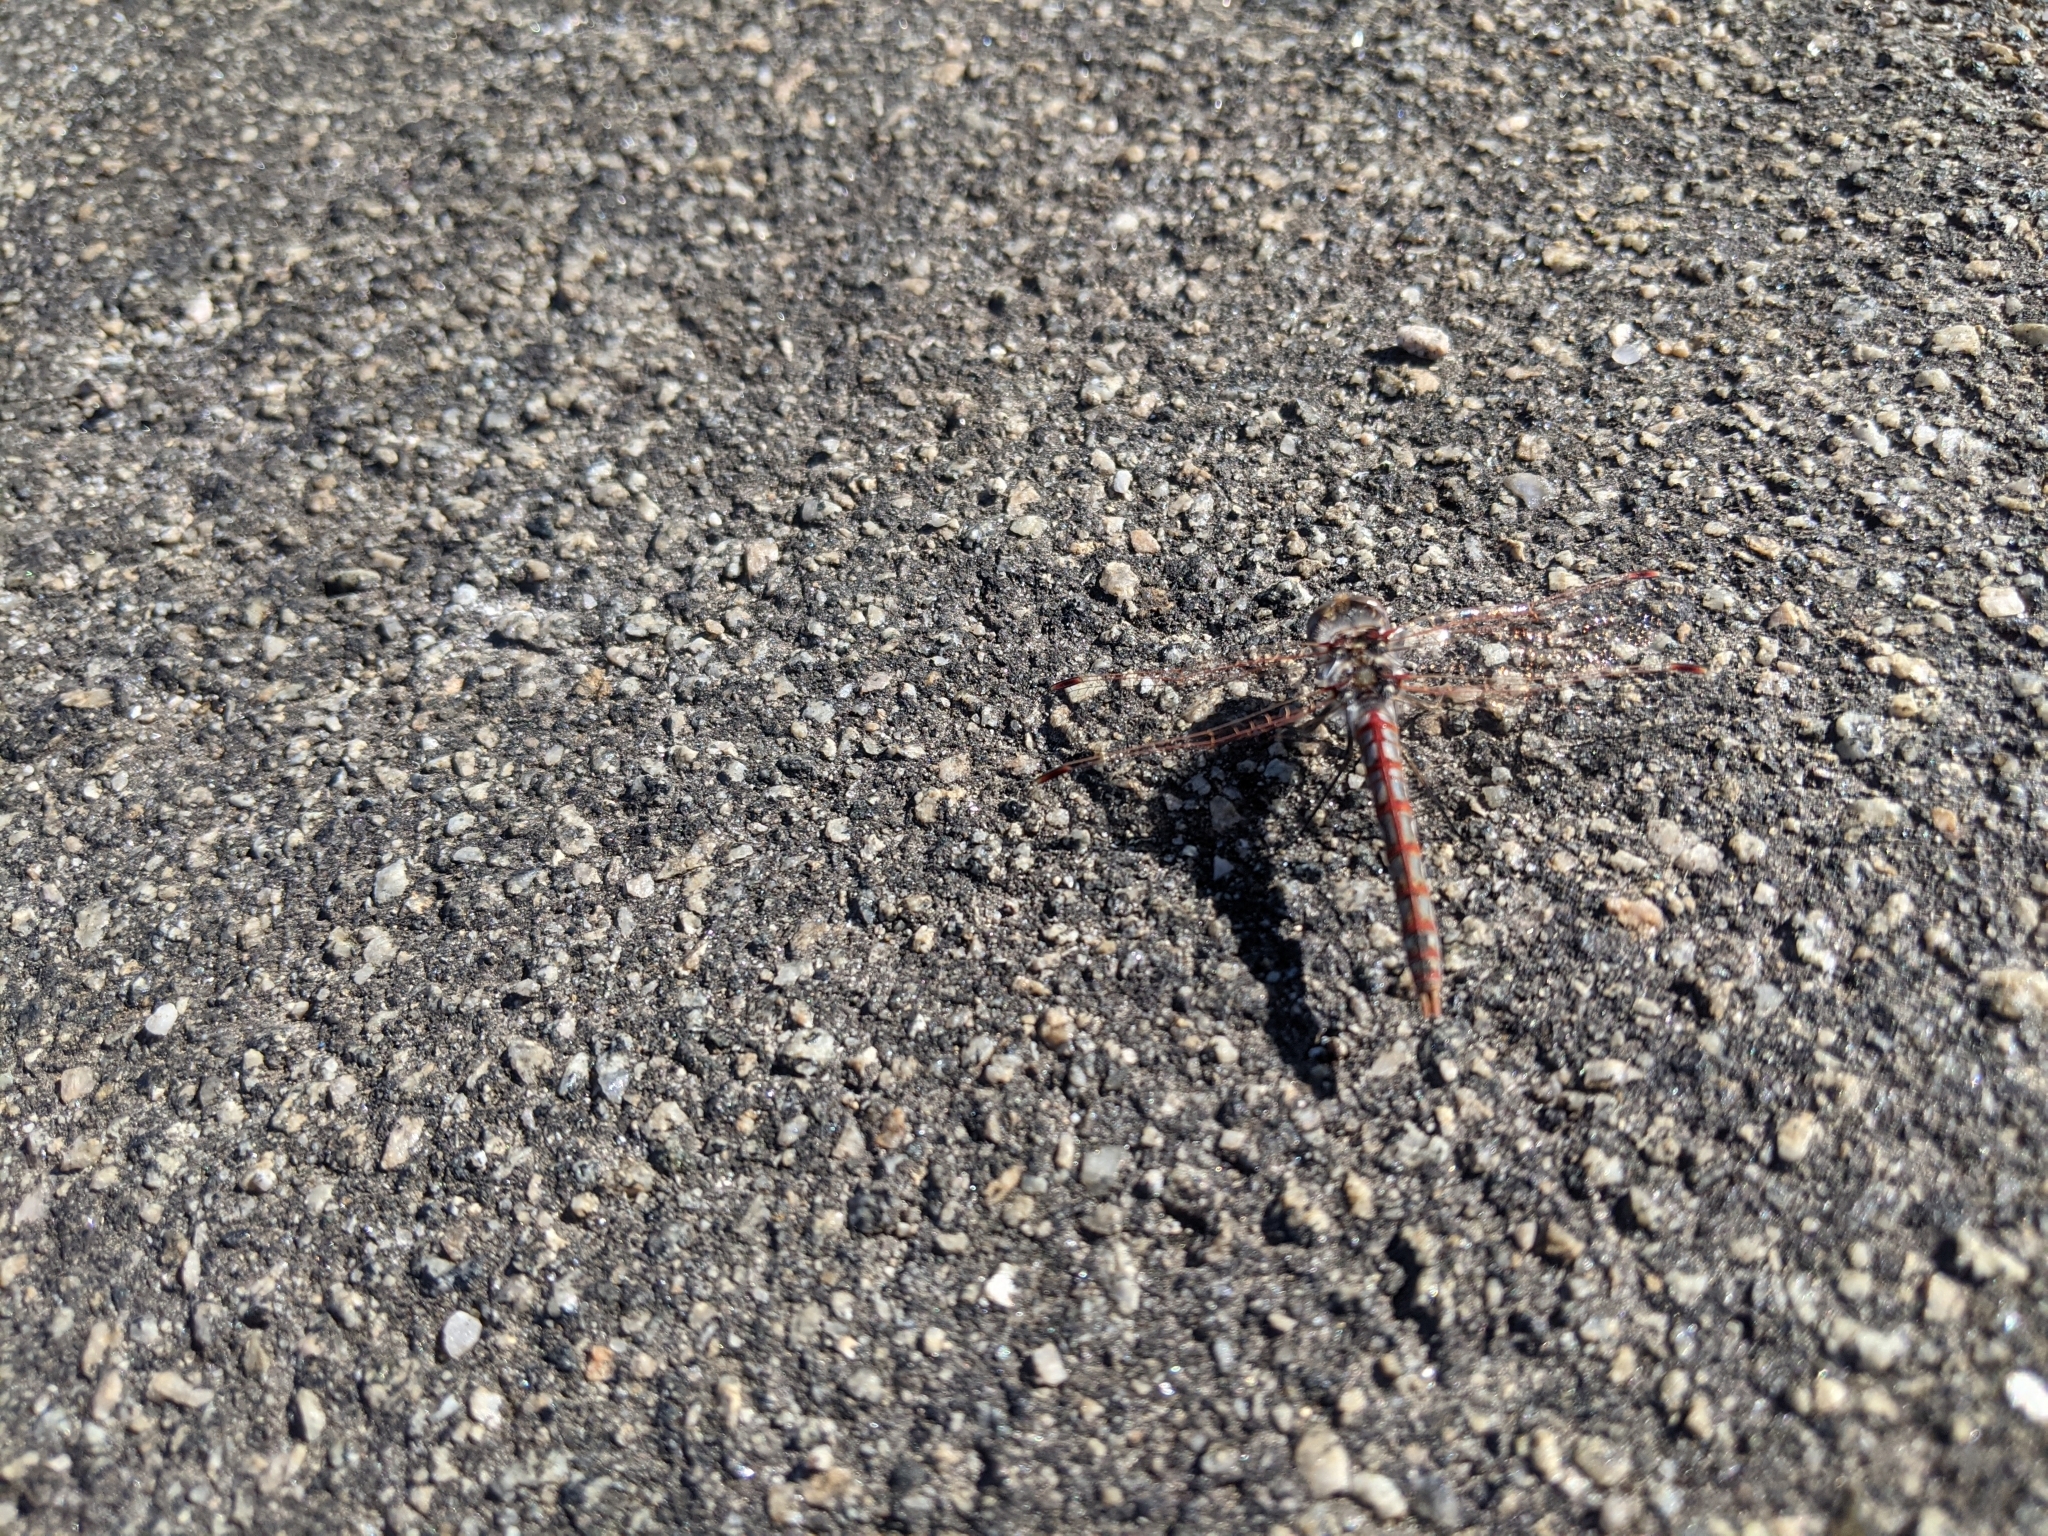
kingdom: Animalia
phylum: Arthropoda
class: Insecta
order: Odonata
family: Libellulidae
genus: Sympetrum
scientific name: Sympetrum corruptum
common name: Variegated meadowhawk
